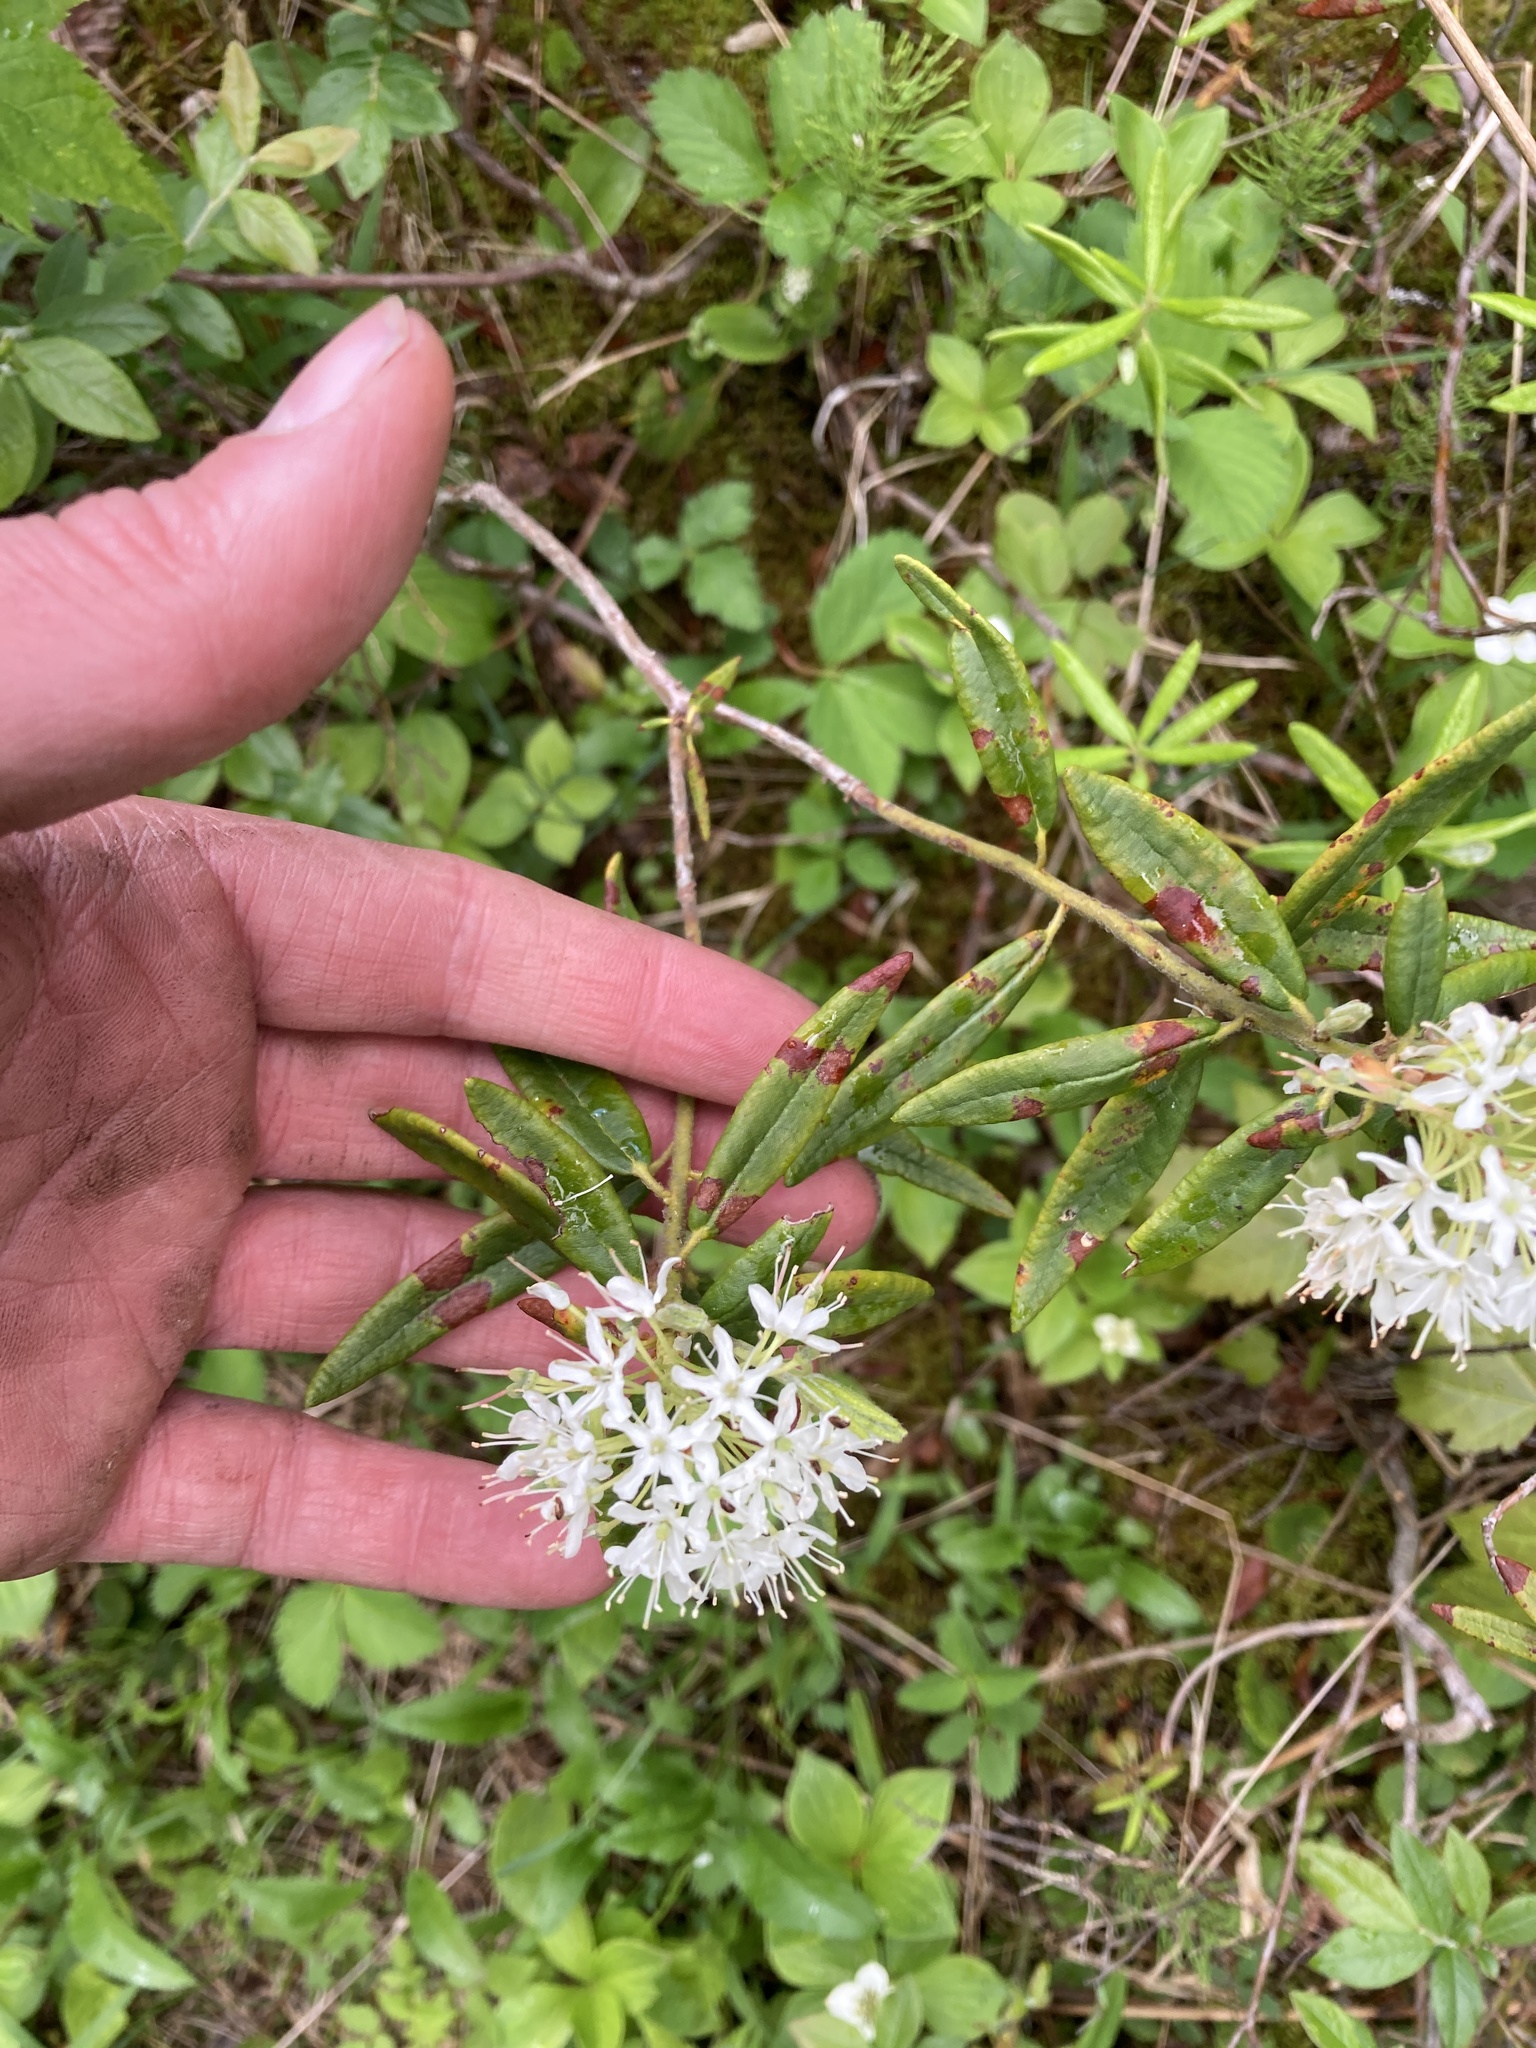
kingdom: Plantae
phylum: Tracheophyta
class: Magnoliopsida
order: Ericales
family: Ericaceae
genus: Rhododendron
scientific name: Rhododendron groenlandicum
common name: Bog labrador tea
